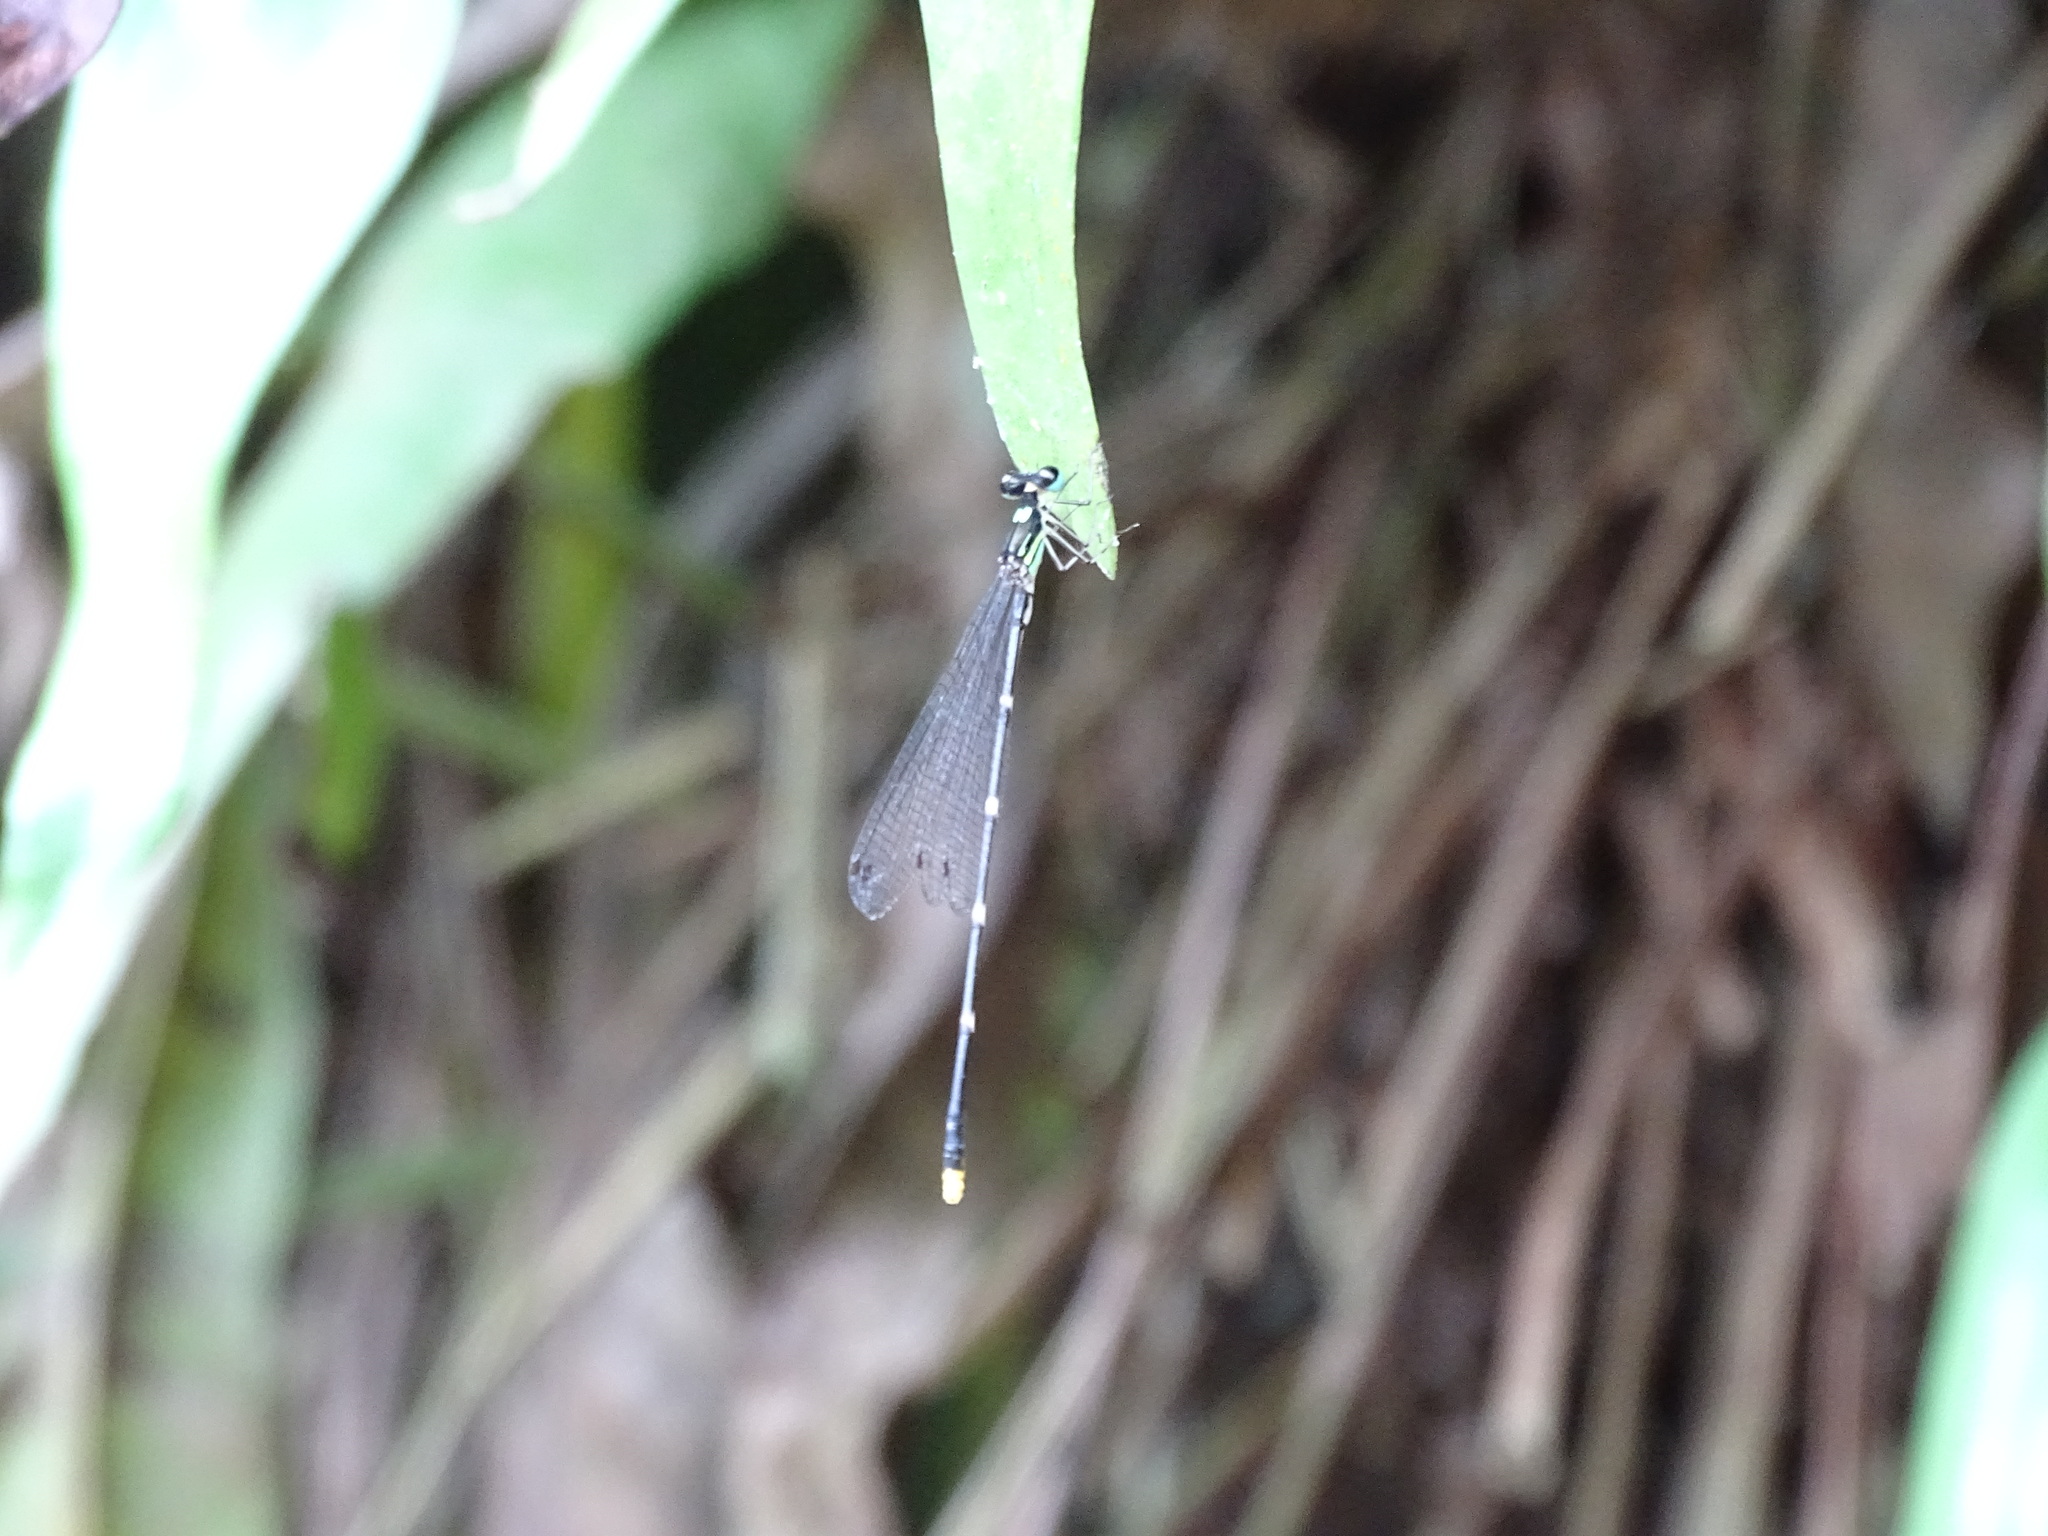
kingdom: Animalia
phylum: Arthropoda
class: Insecta
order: Odonata
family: Platycnemididae
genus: Coeliccia
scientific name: Coeliccia flavicauda
